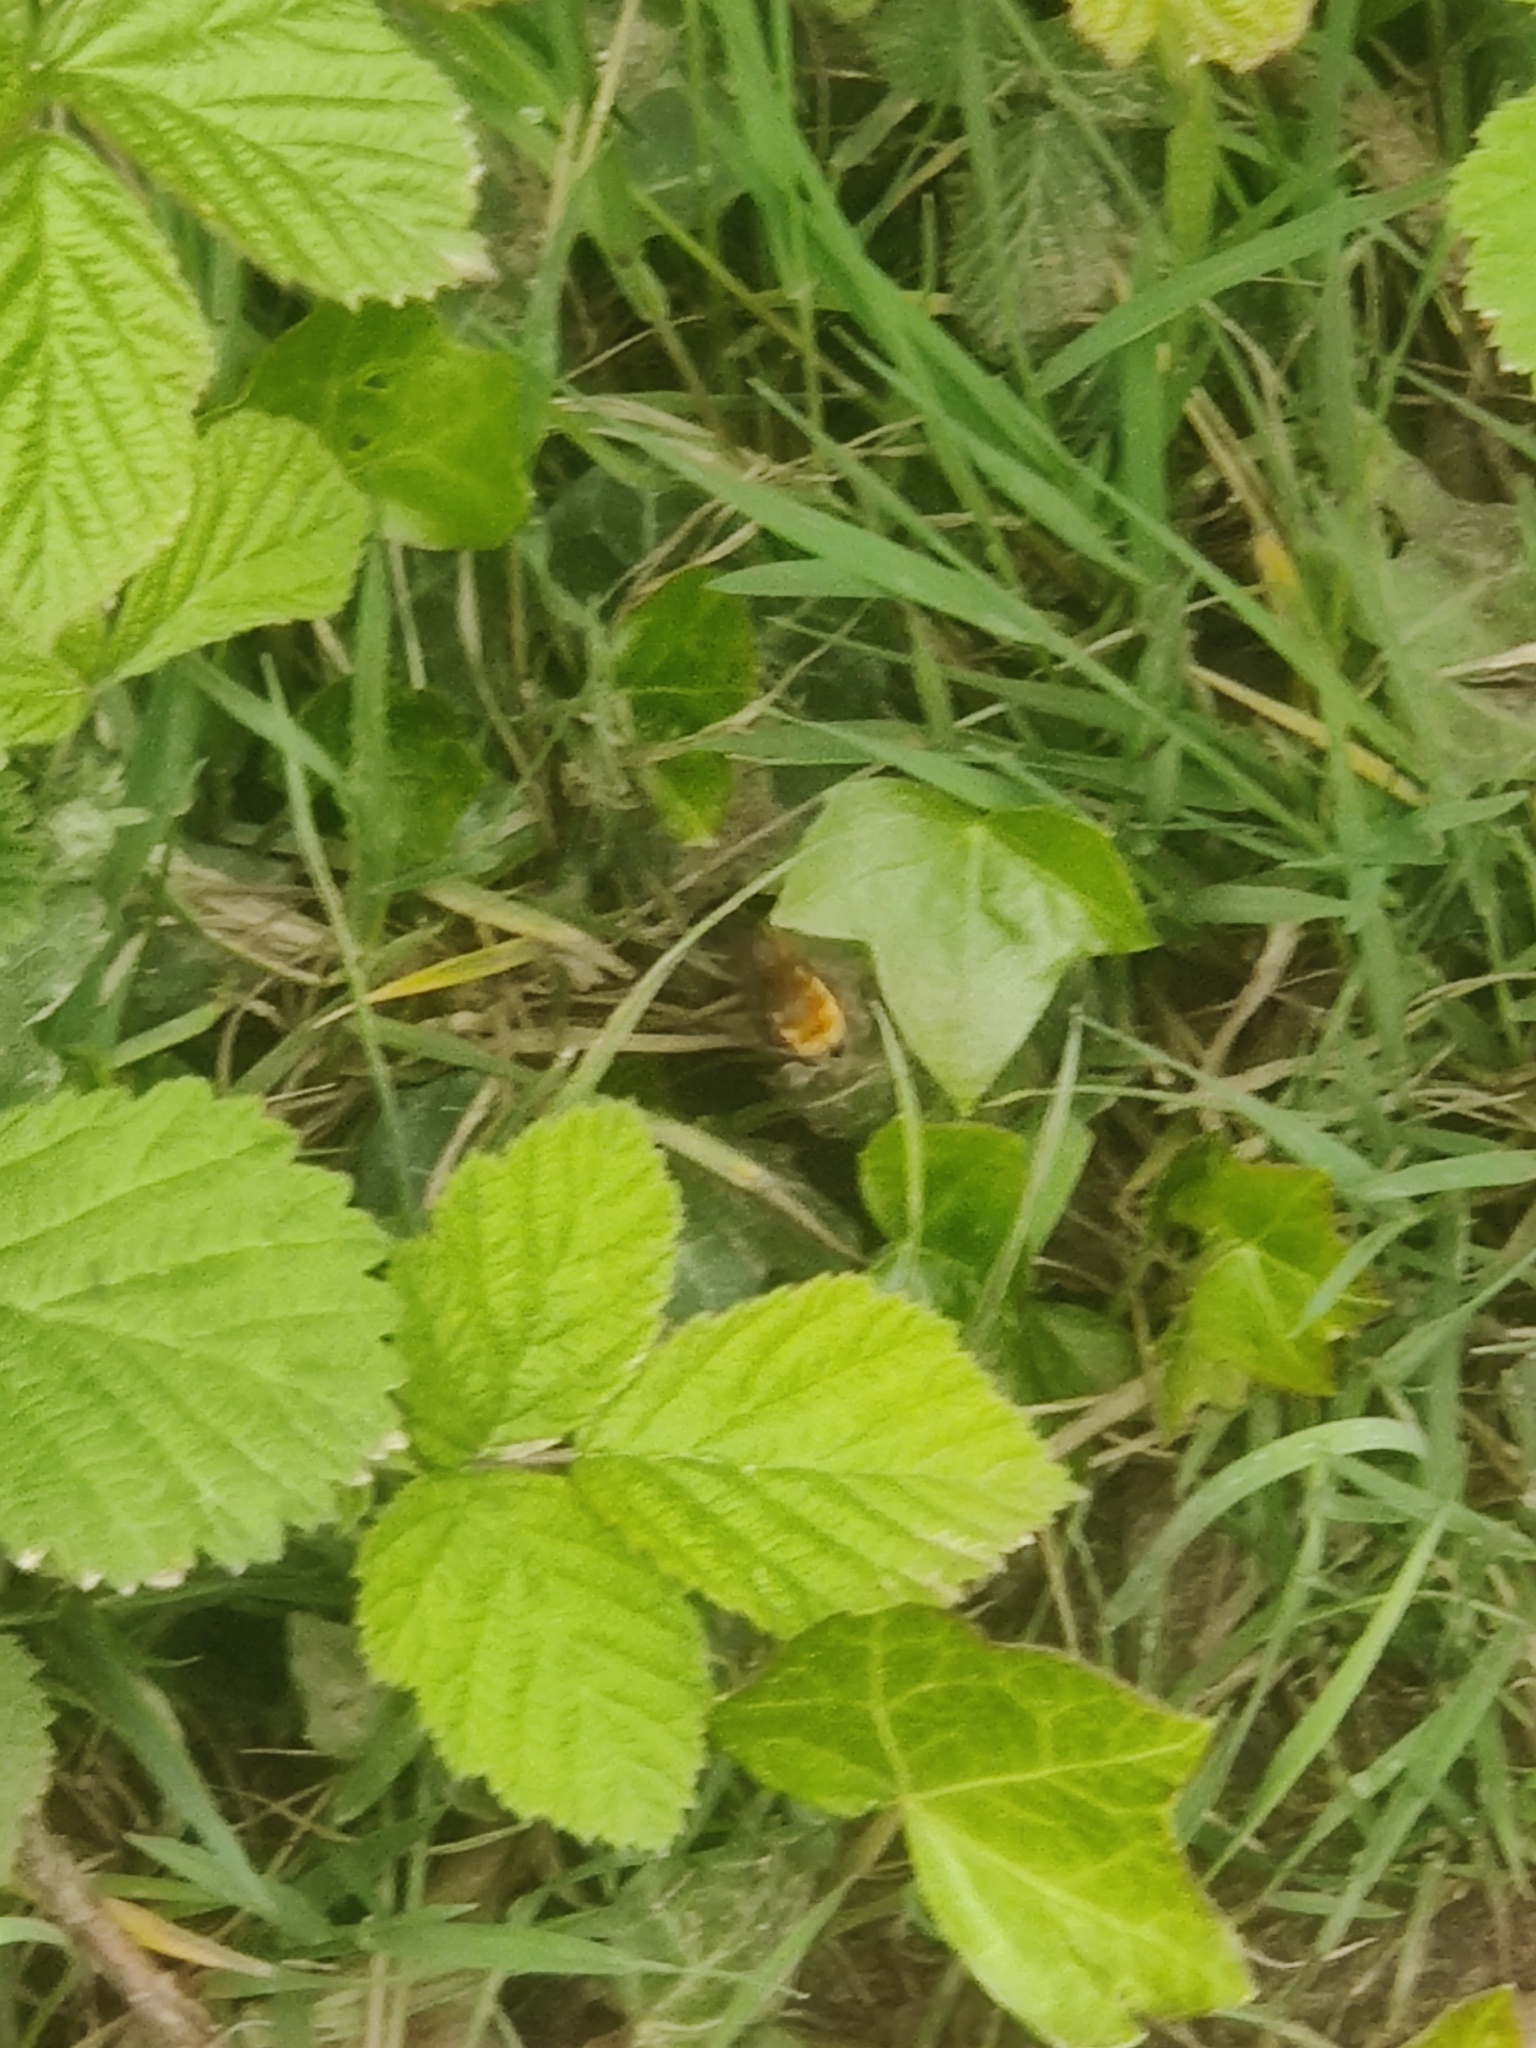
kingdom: Animalia
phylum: Arthropoda
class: Insecta
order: Hymenoptera
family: Andrenidae
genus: Andrena
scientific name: Andrena fulva
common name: Tawny mining bee
